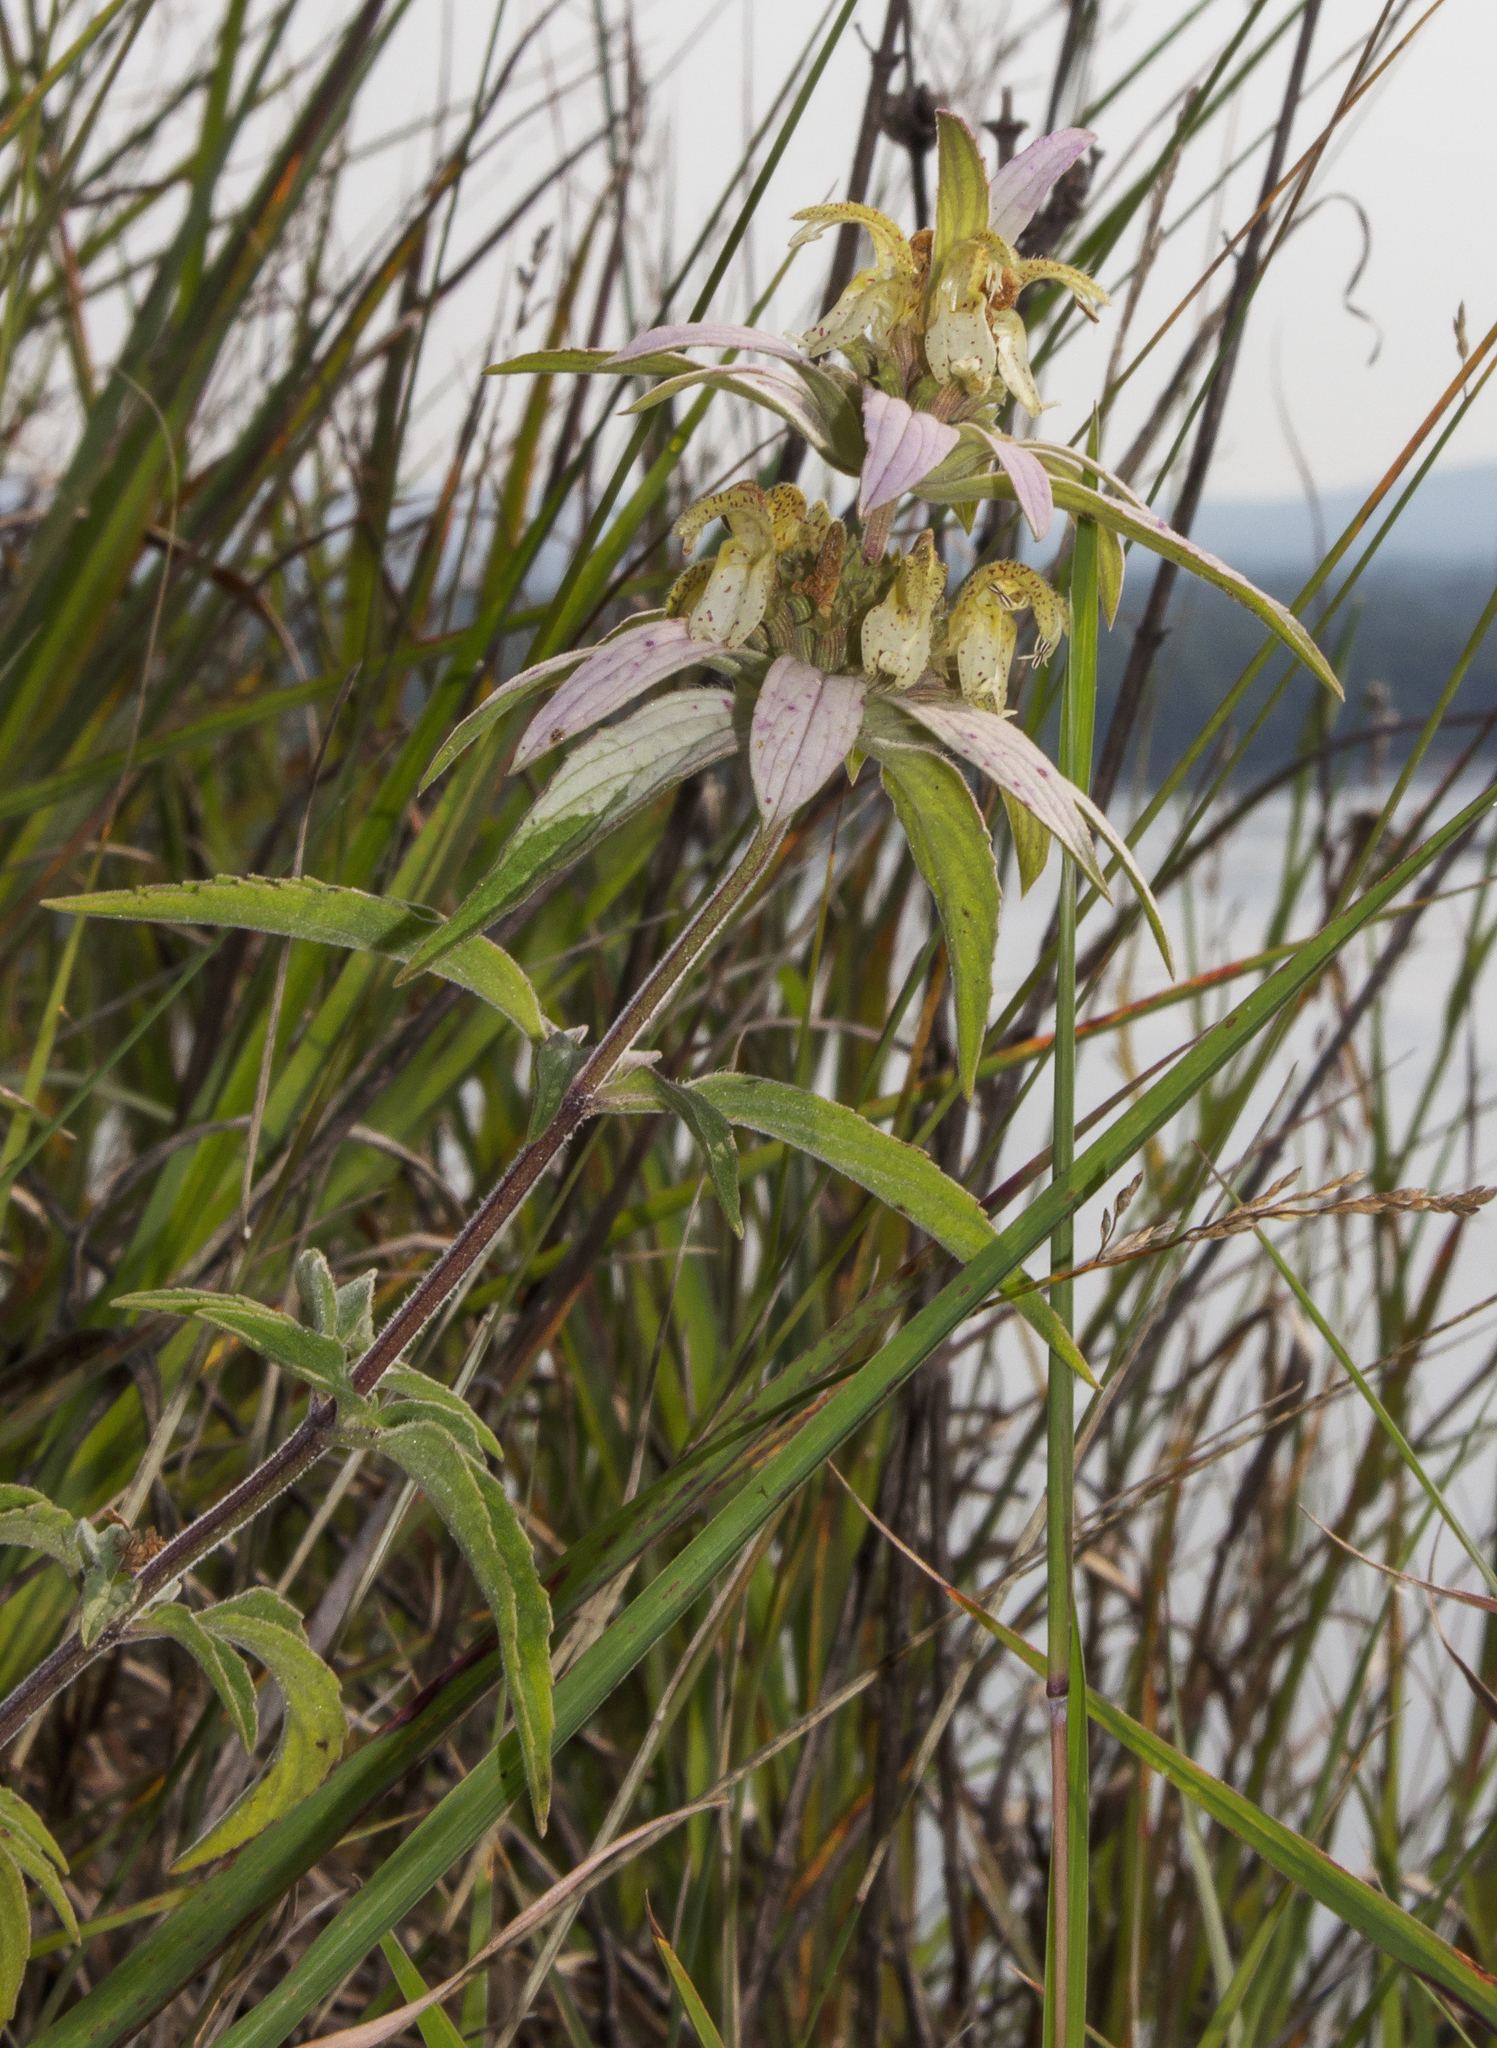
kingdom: Plantae
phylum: Tracheophyta
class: Magnoliopsida
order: Lamiales
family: Lamiaceae
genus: Monarda
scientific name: Monarda punctata
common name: Dotted monarda
